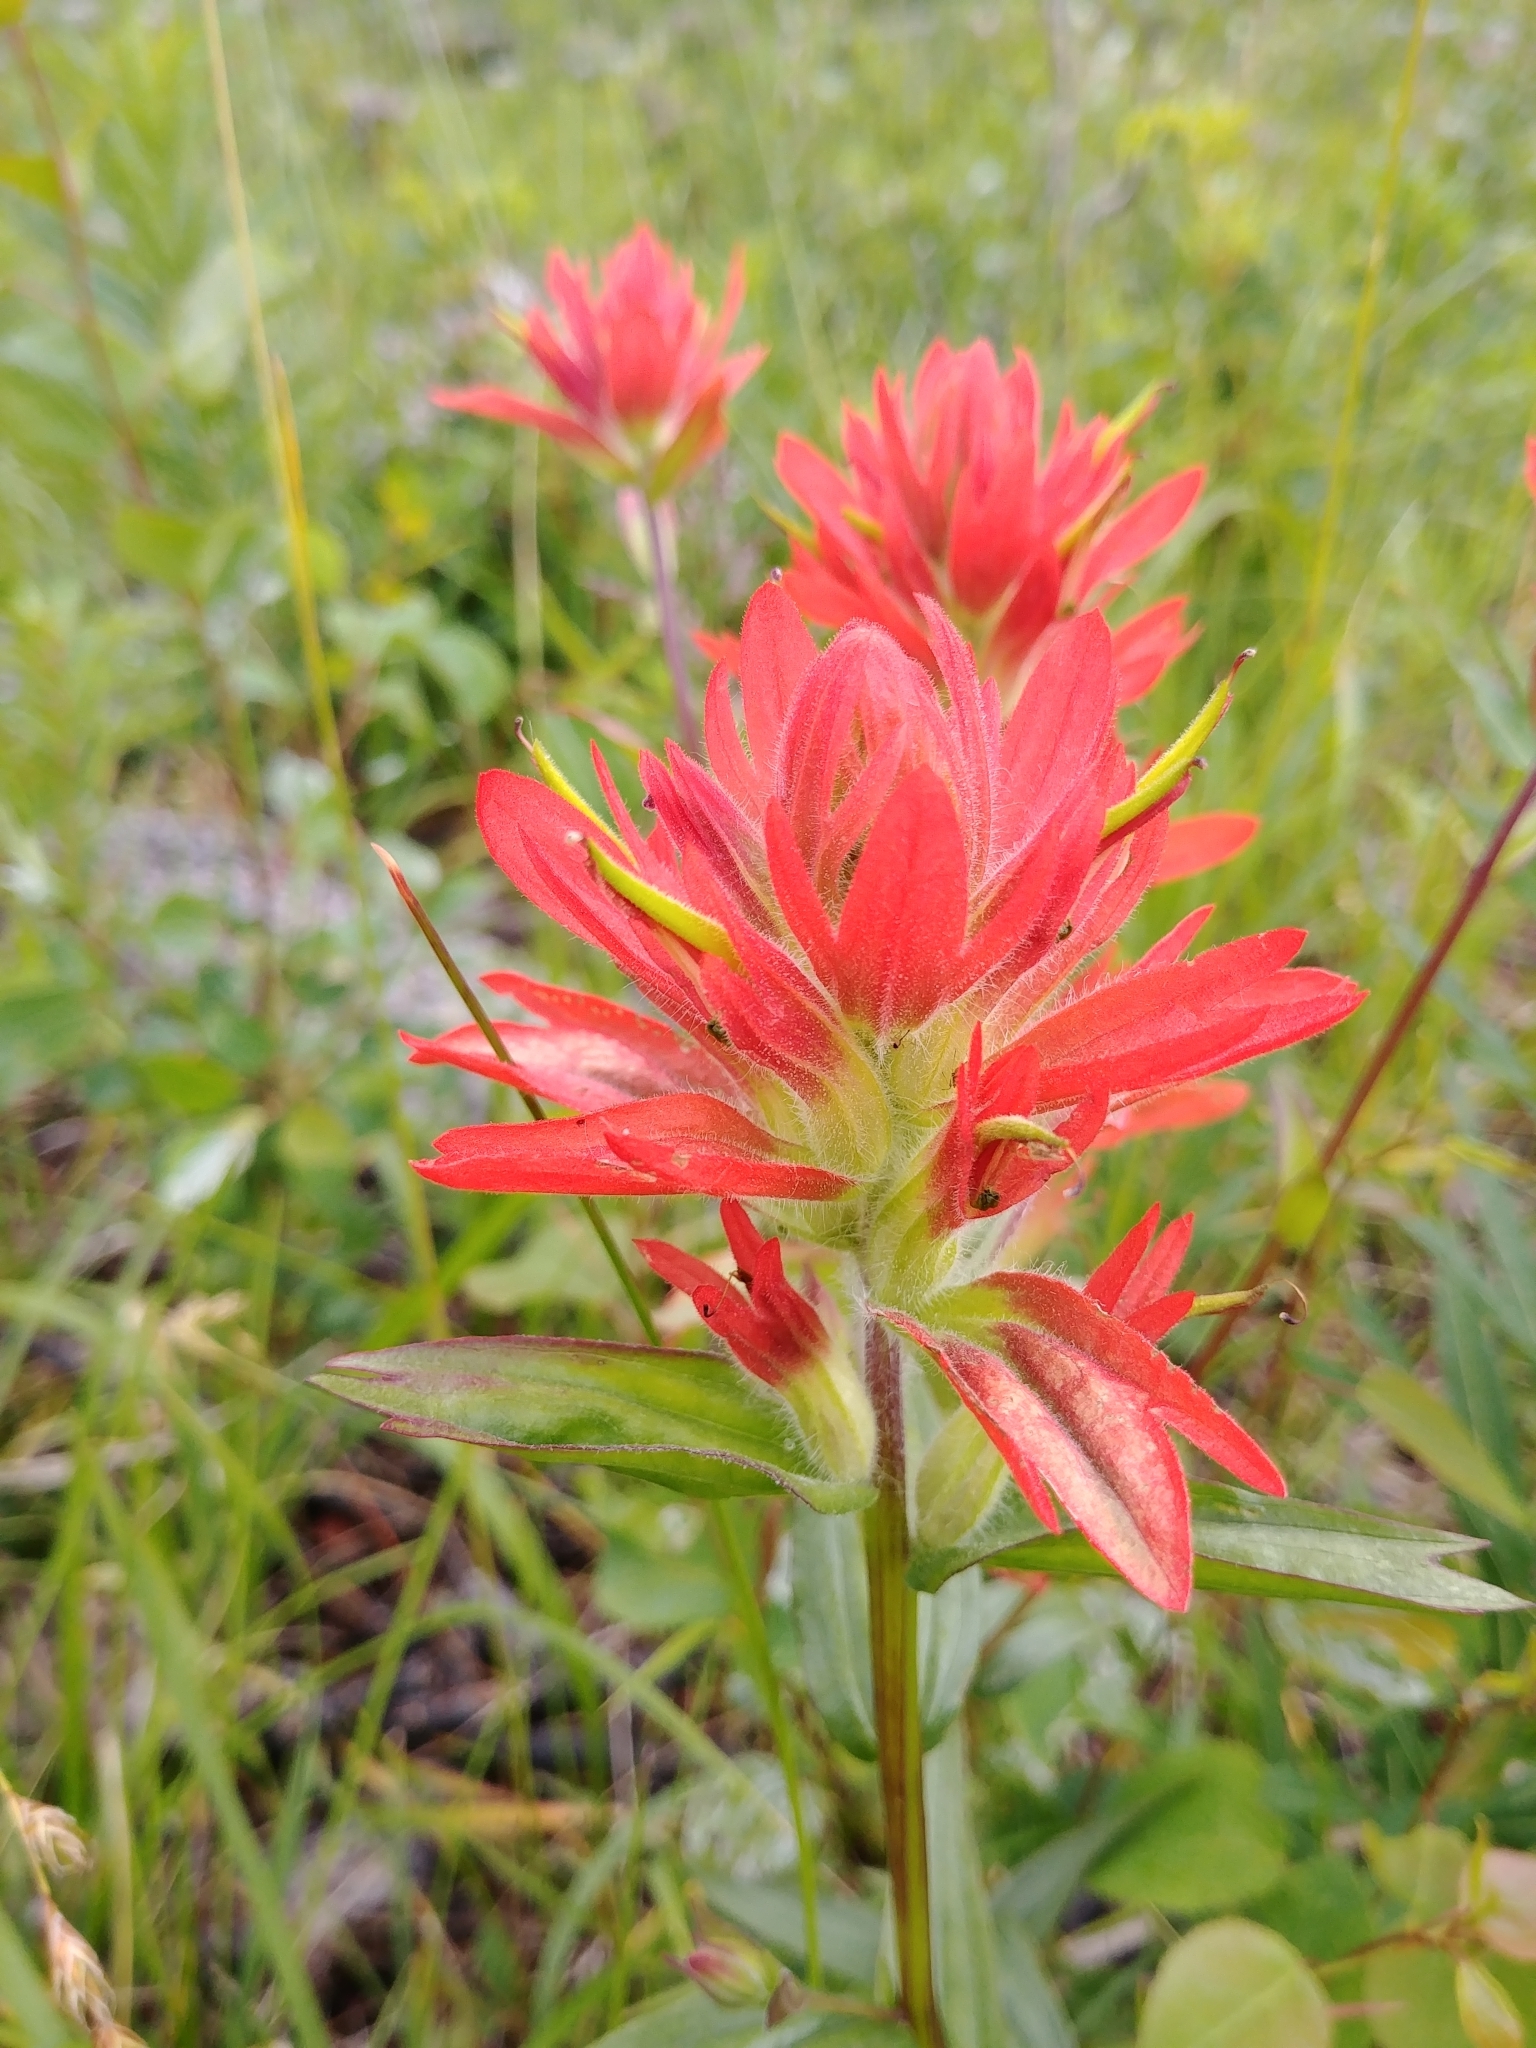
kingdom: Plantae
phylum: Tracheophyta
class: Magnoliopsida
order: Lamiales
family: Orobanchaceae
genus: Castilleja
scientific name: Castilleja miniata
